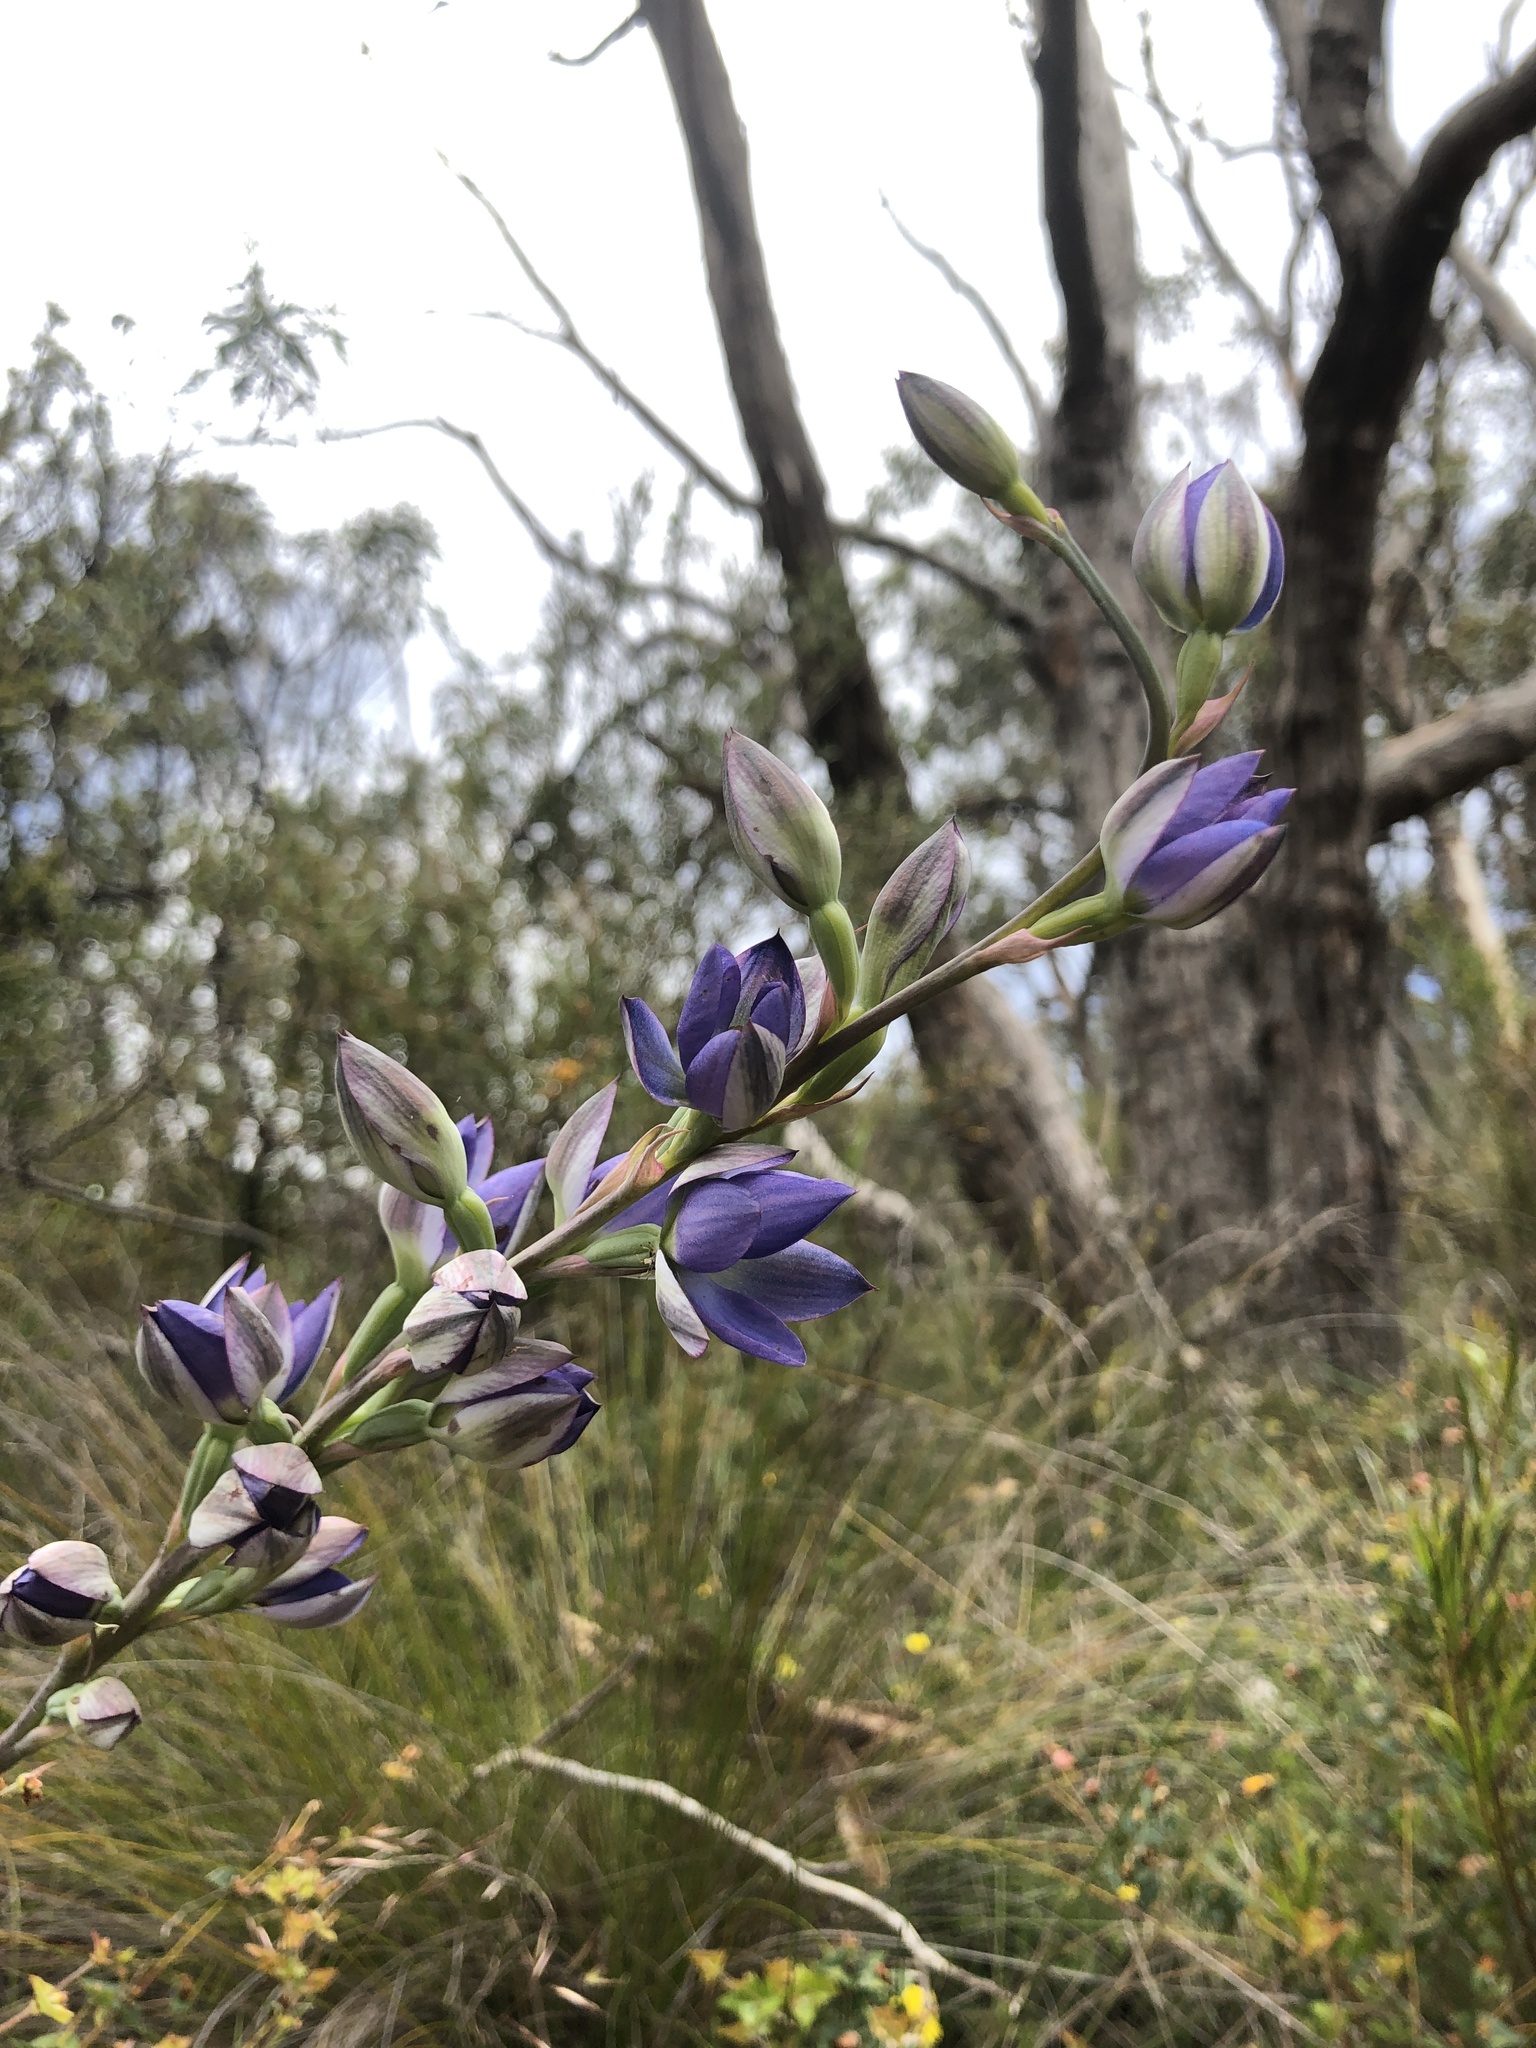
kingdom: Plantae
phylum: Tracheophyta
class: Liliopsida
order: Asparagales
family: Orchidaceae
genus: Thelymitra
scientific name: Thelymitra grandiflora
